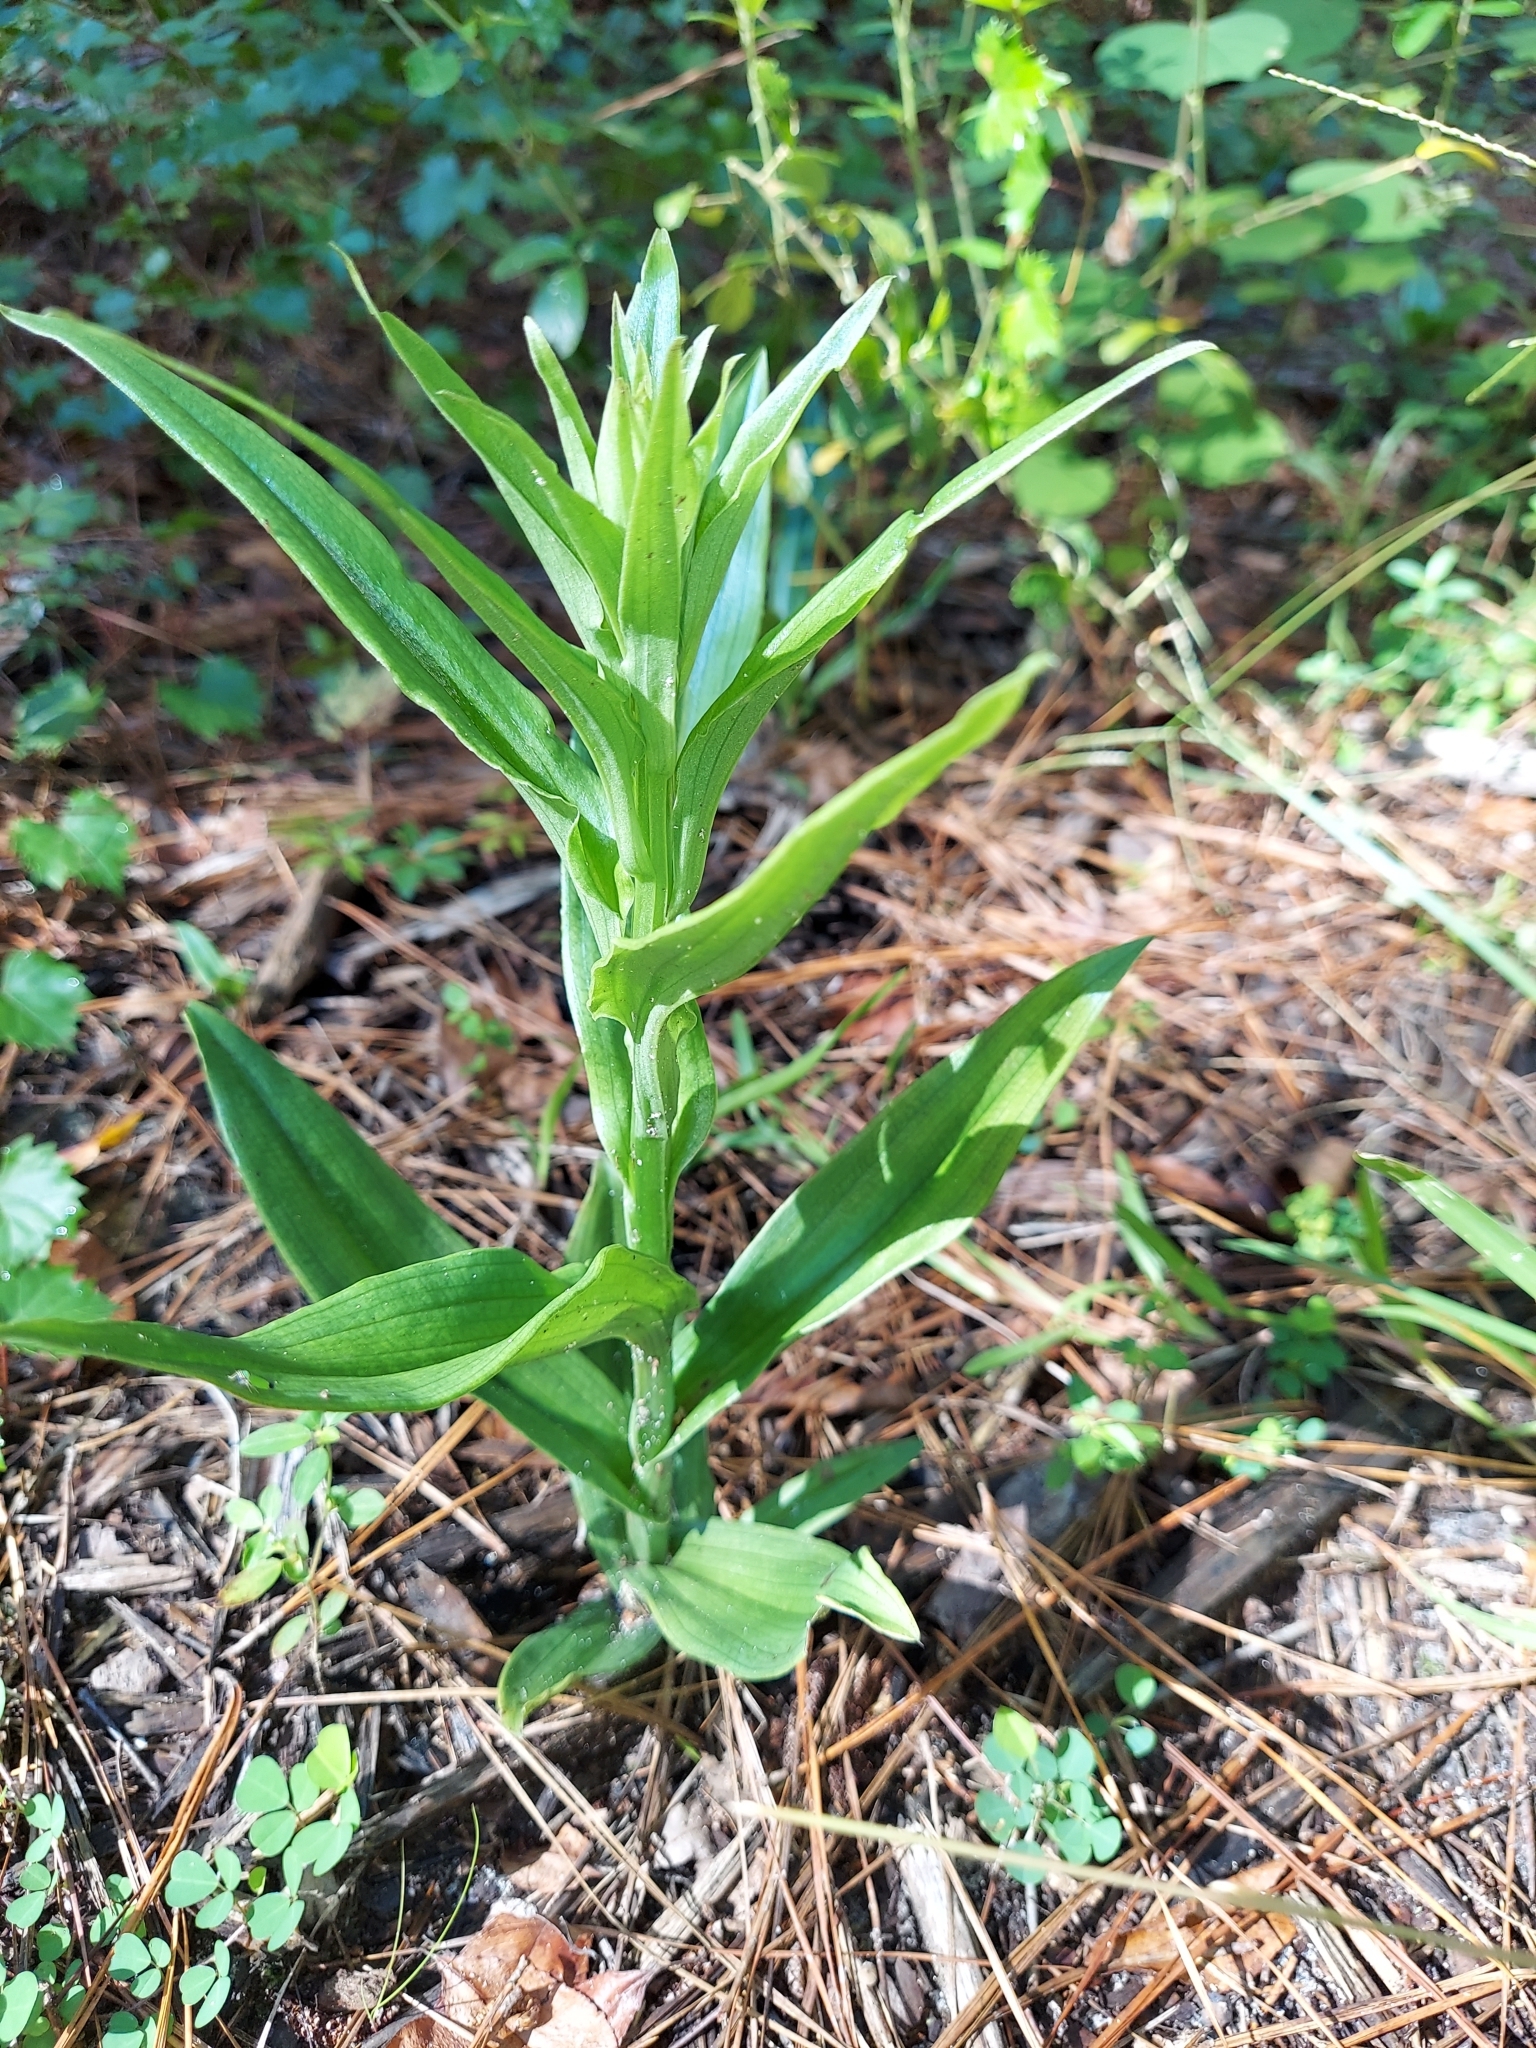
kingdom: Plantae
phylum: Tracheophyta
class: Liliopsida
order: Asparagales
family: Orchidaceae
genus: Habenaria
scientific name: Habenaria floribunda
